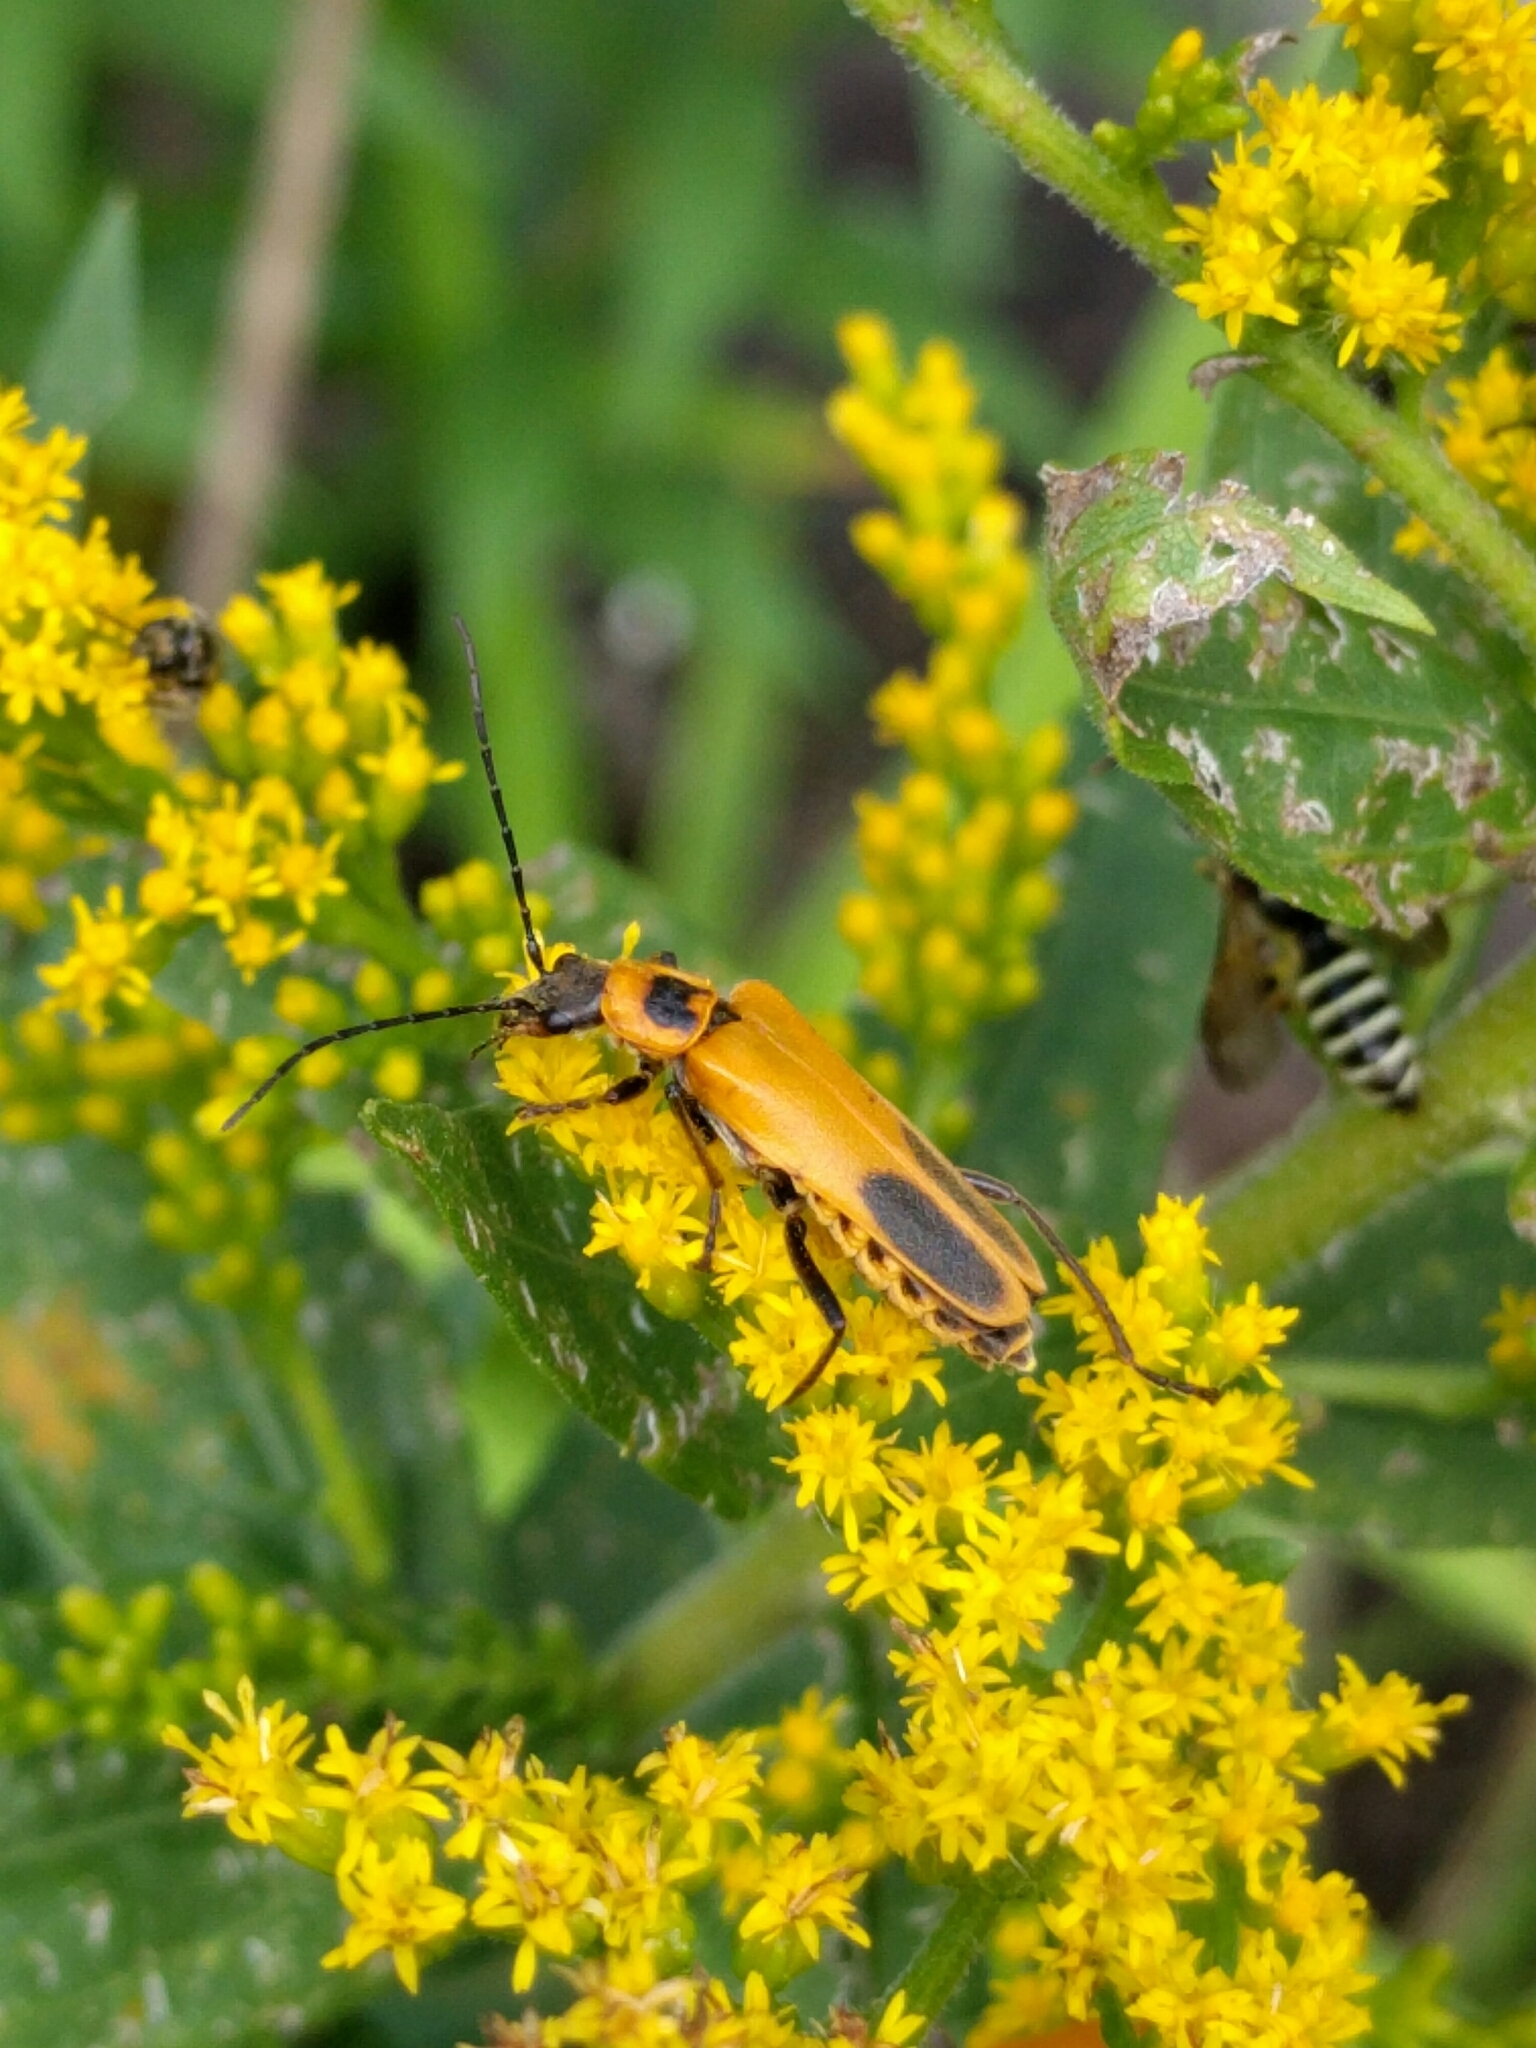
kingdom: Animalia
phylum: Arthropoda
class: Insecta
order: Coleoptera
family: Cantharidae
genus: Chauliognathus
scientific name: Chauliognathus pensylvanicus
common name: Goldenrod soldier beetle
